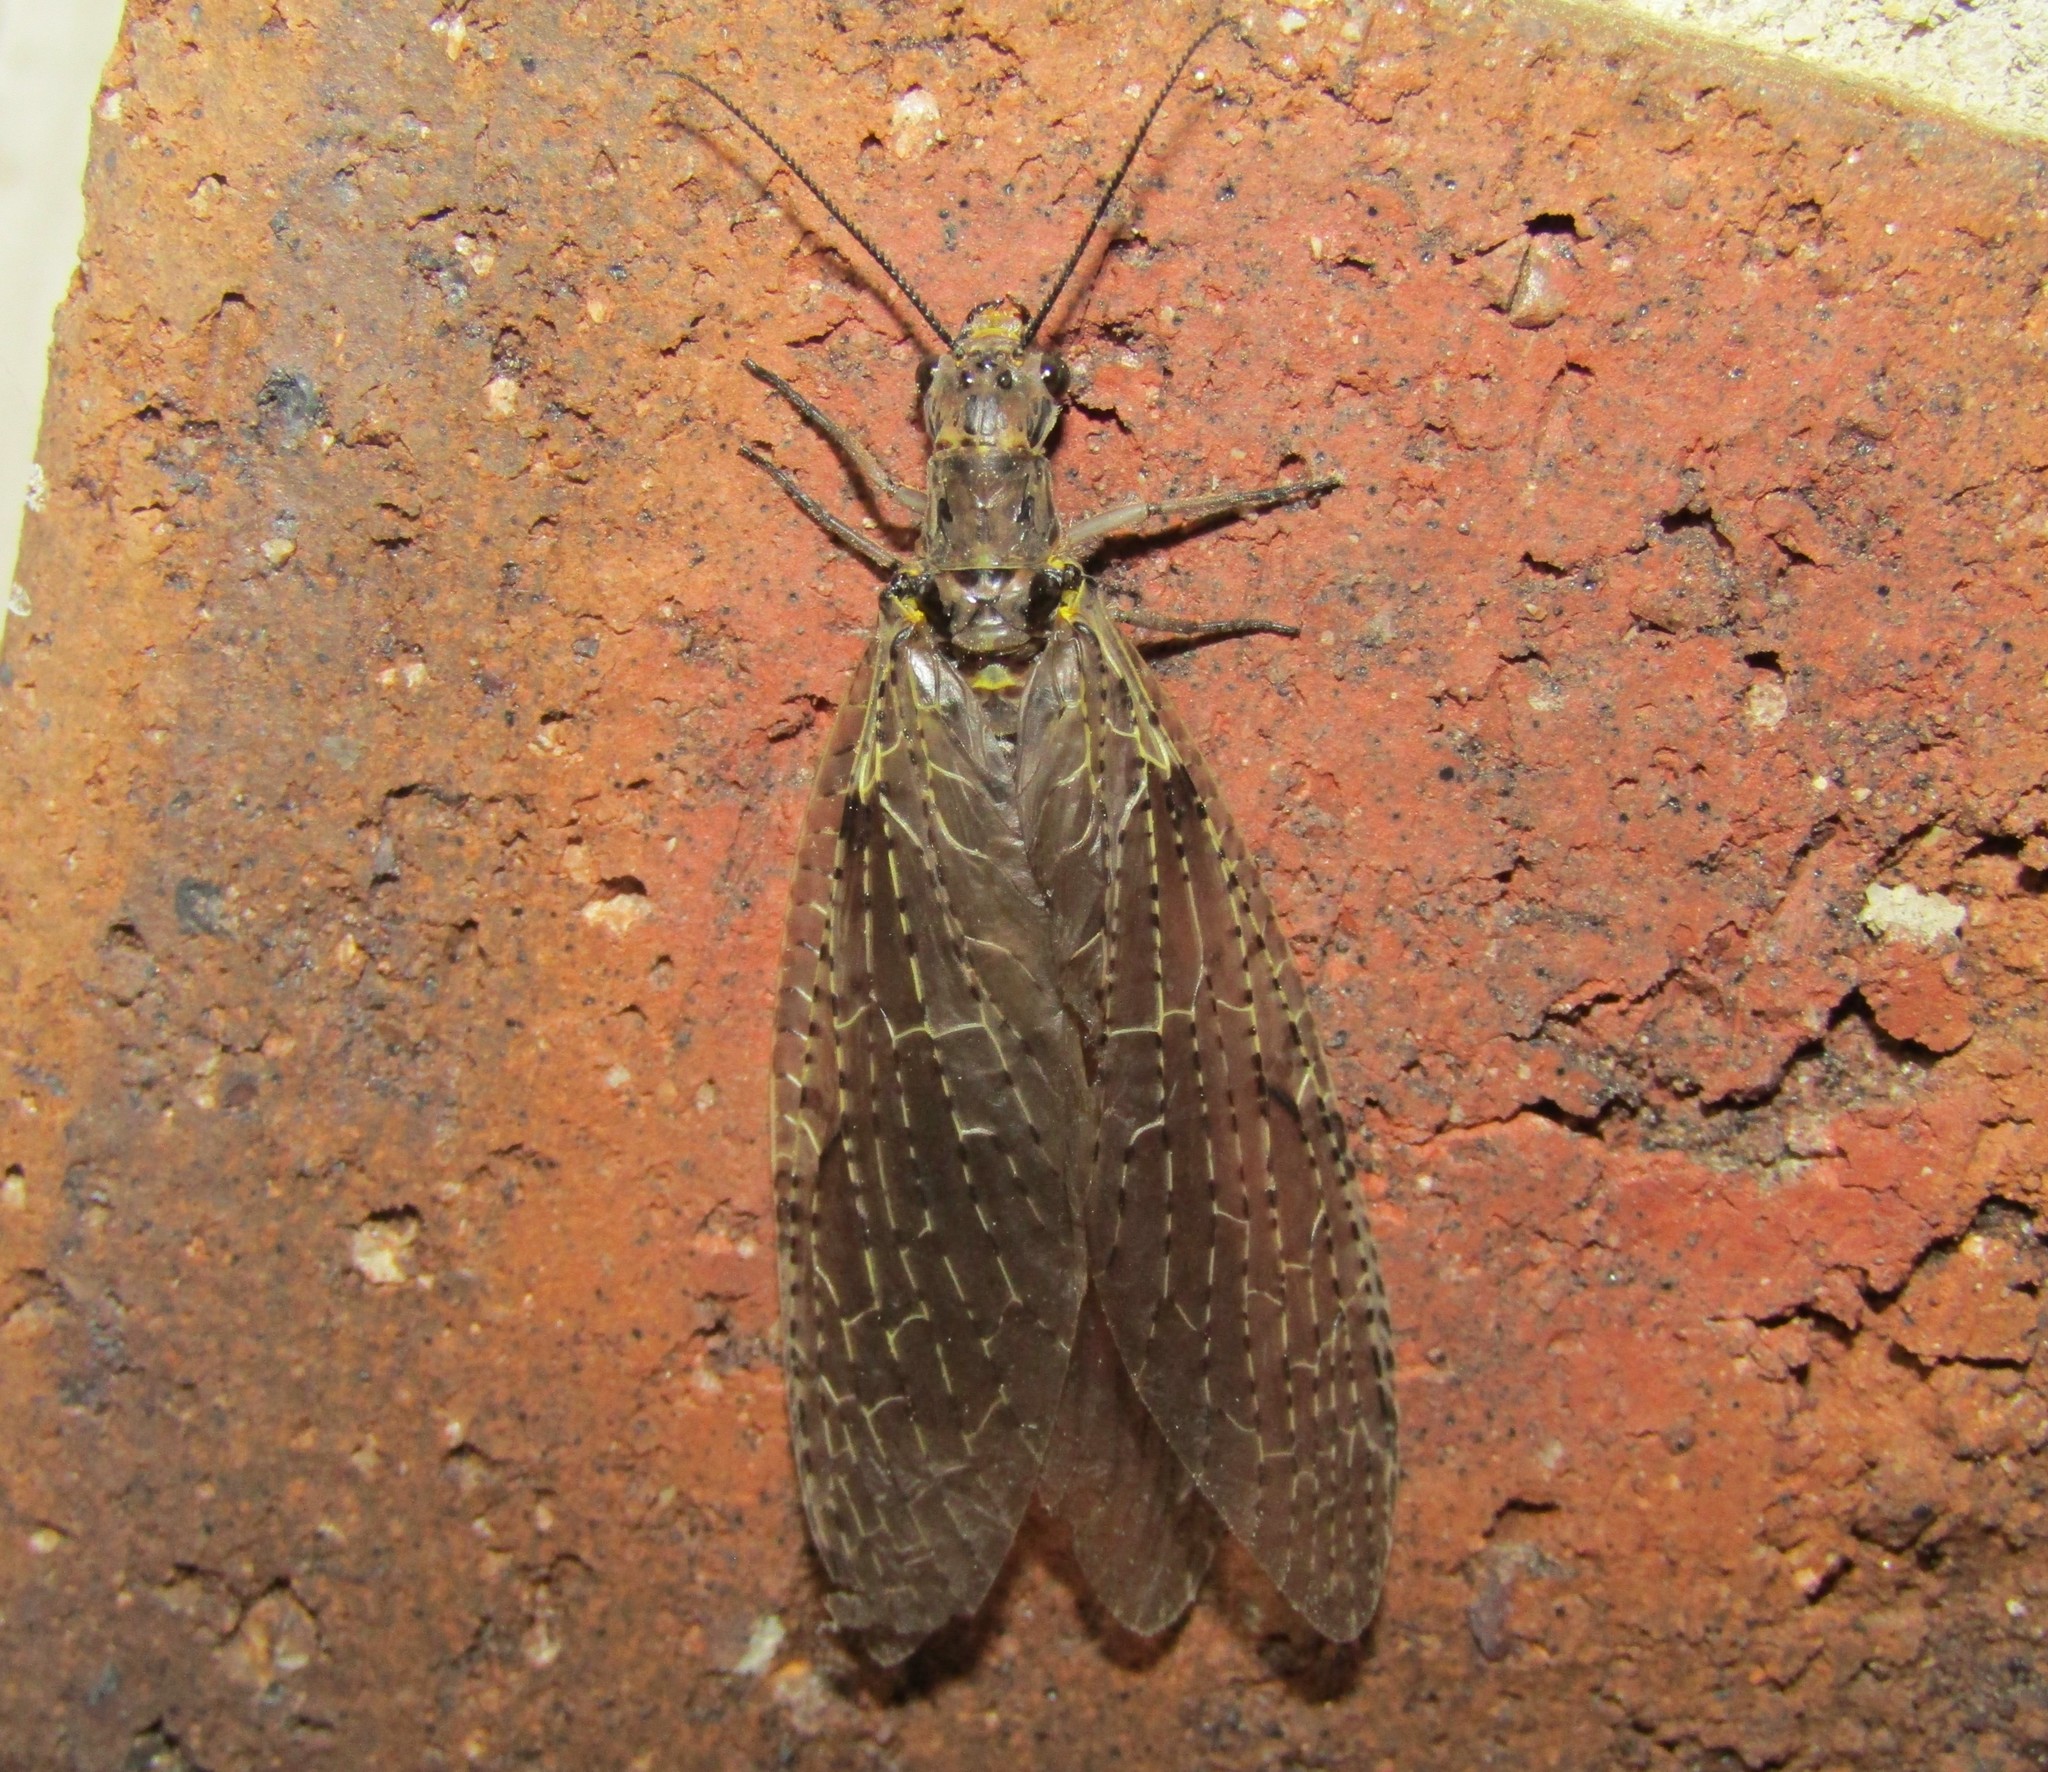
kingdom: Animalia
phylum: Arthropoda
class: Insecta
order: Megaloptera
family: Corydalidae
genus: Chauliodes
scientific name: Chauliodes rastricornis
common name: Spring fishfly
